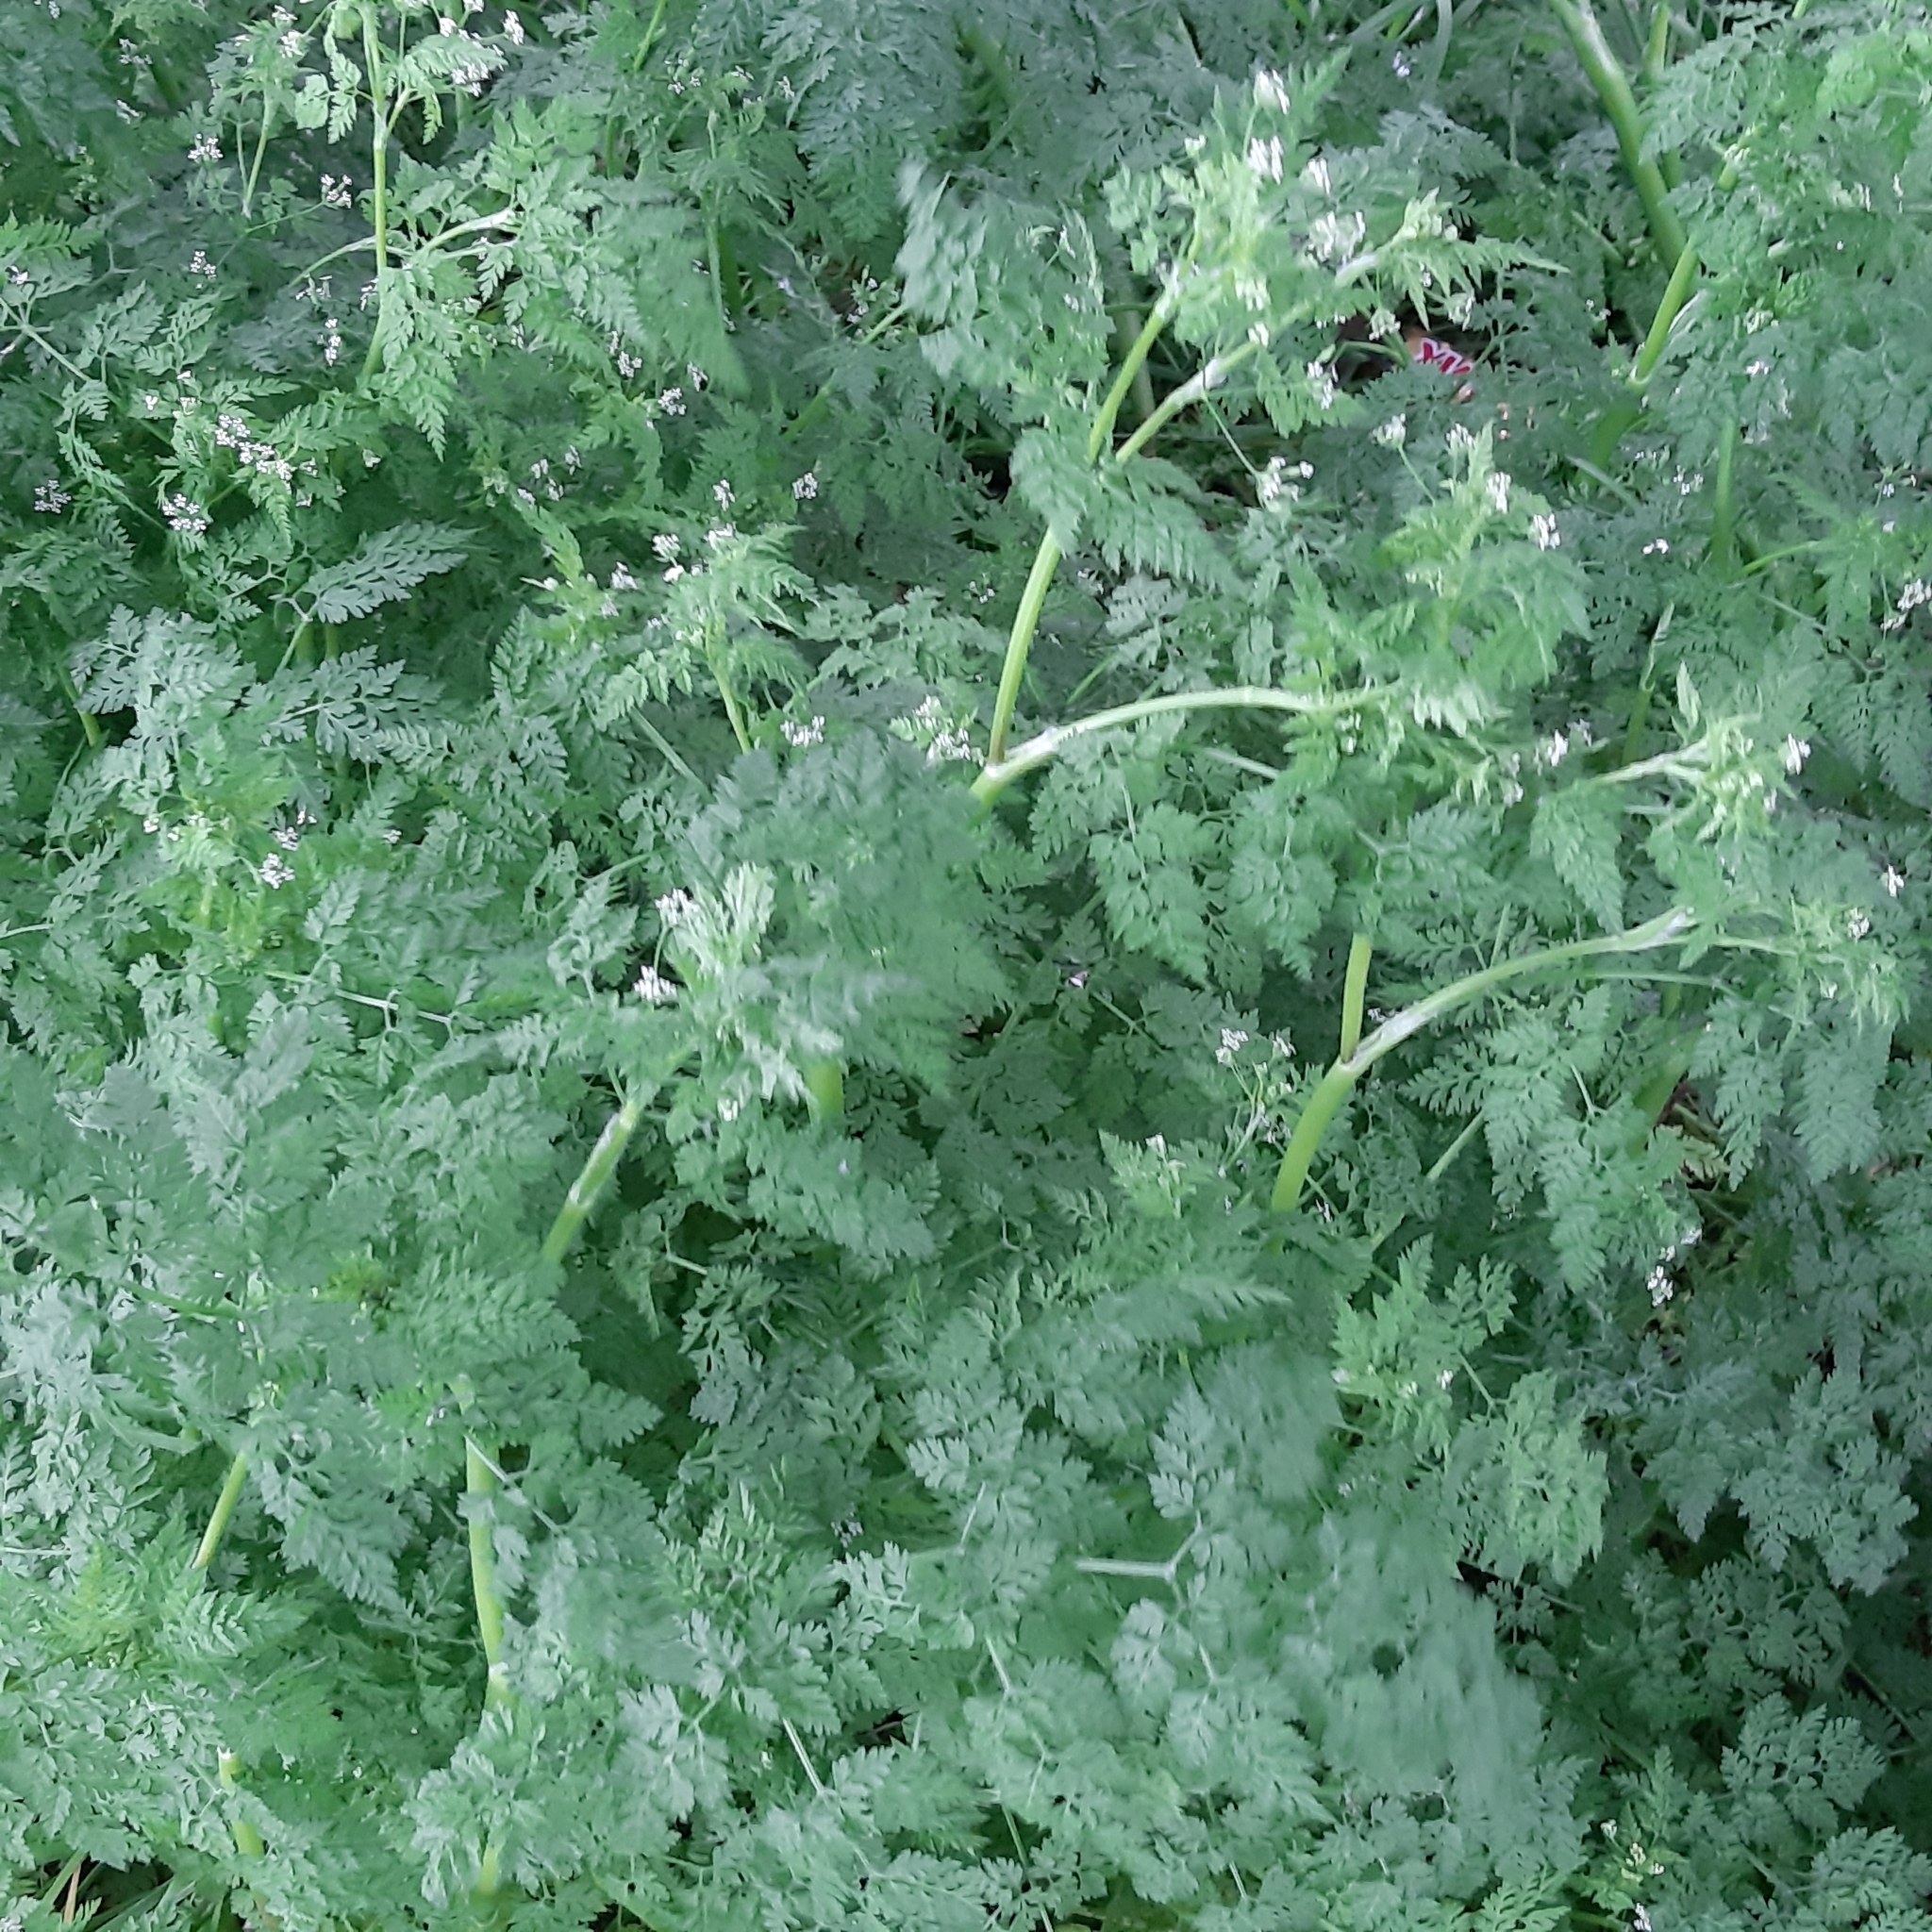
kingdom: Plantae
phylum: Tracheophyta
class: Magnoliopsida
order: Apiales
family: Apiaceae
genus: Anthriscus
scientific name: Anthriscus caucalis
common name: Bur chervil
